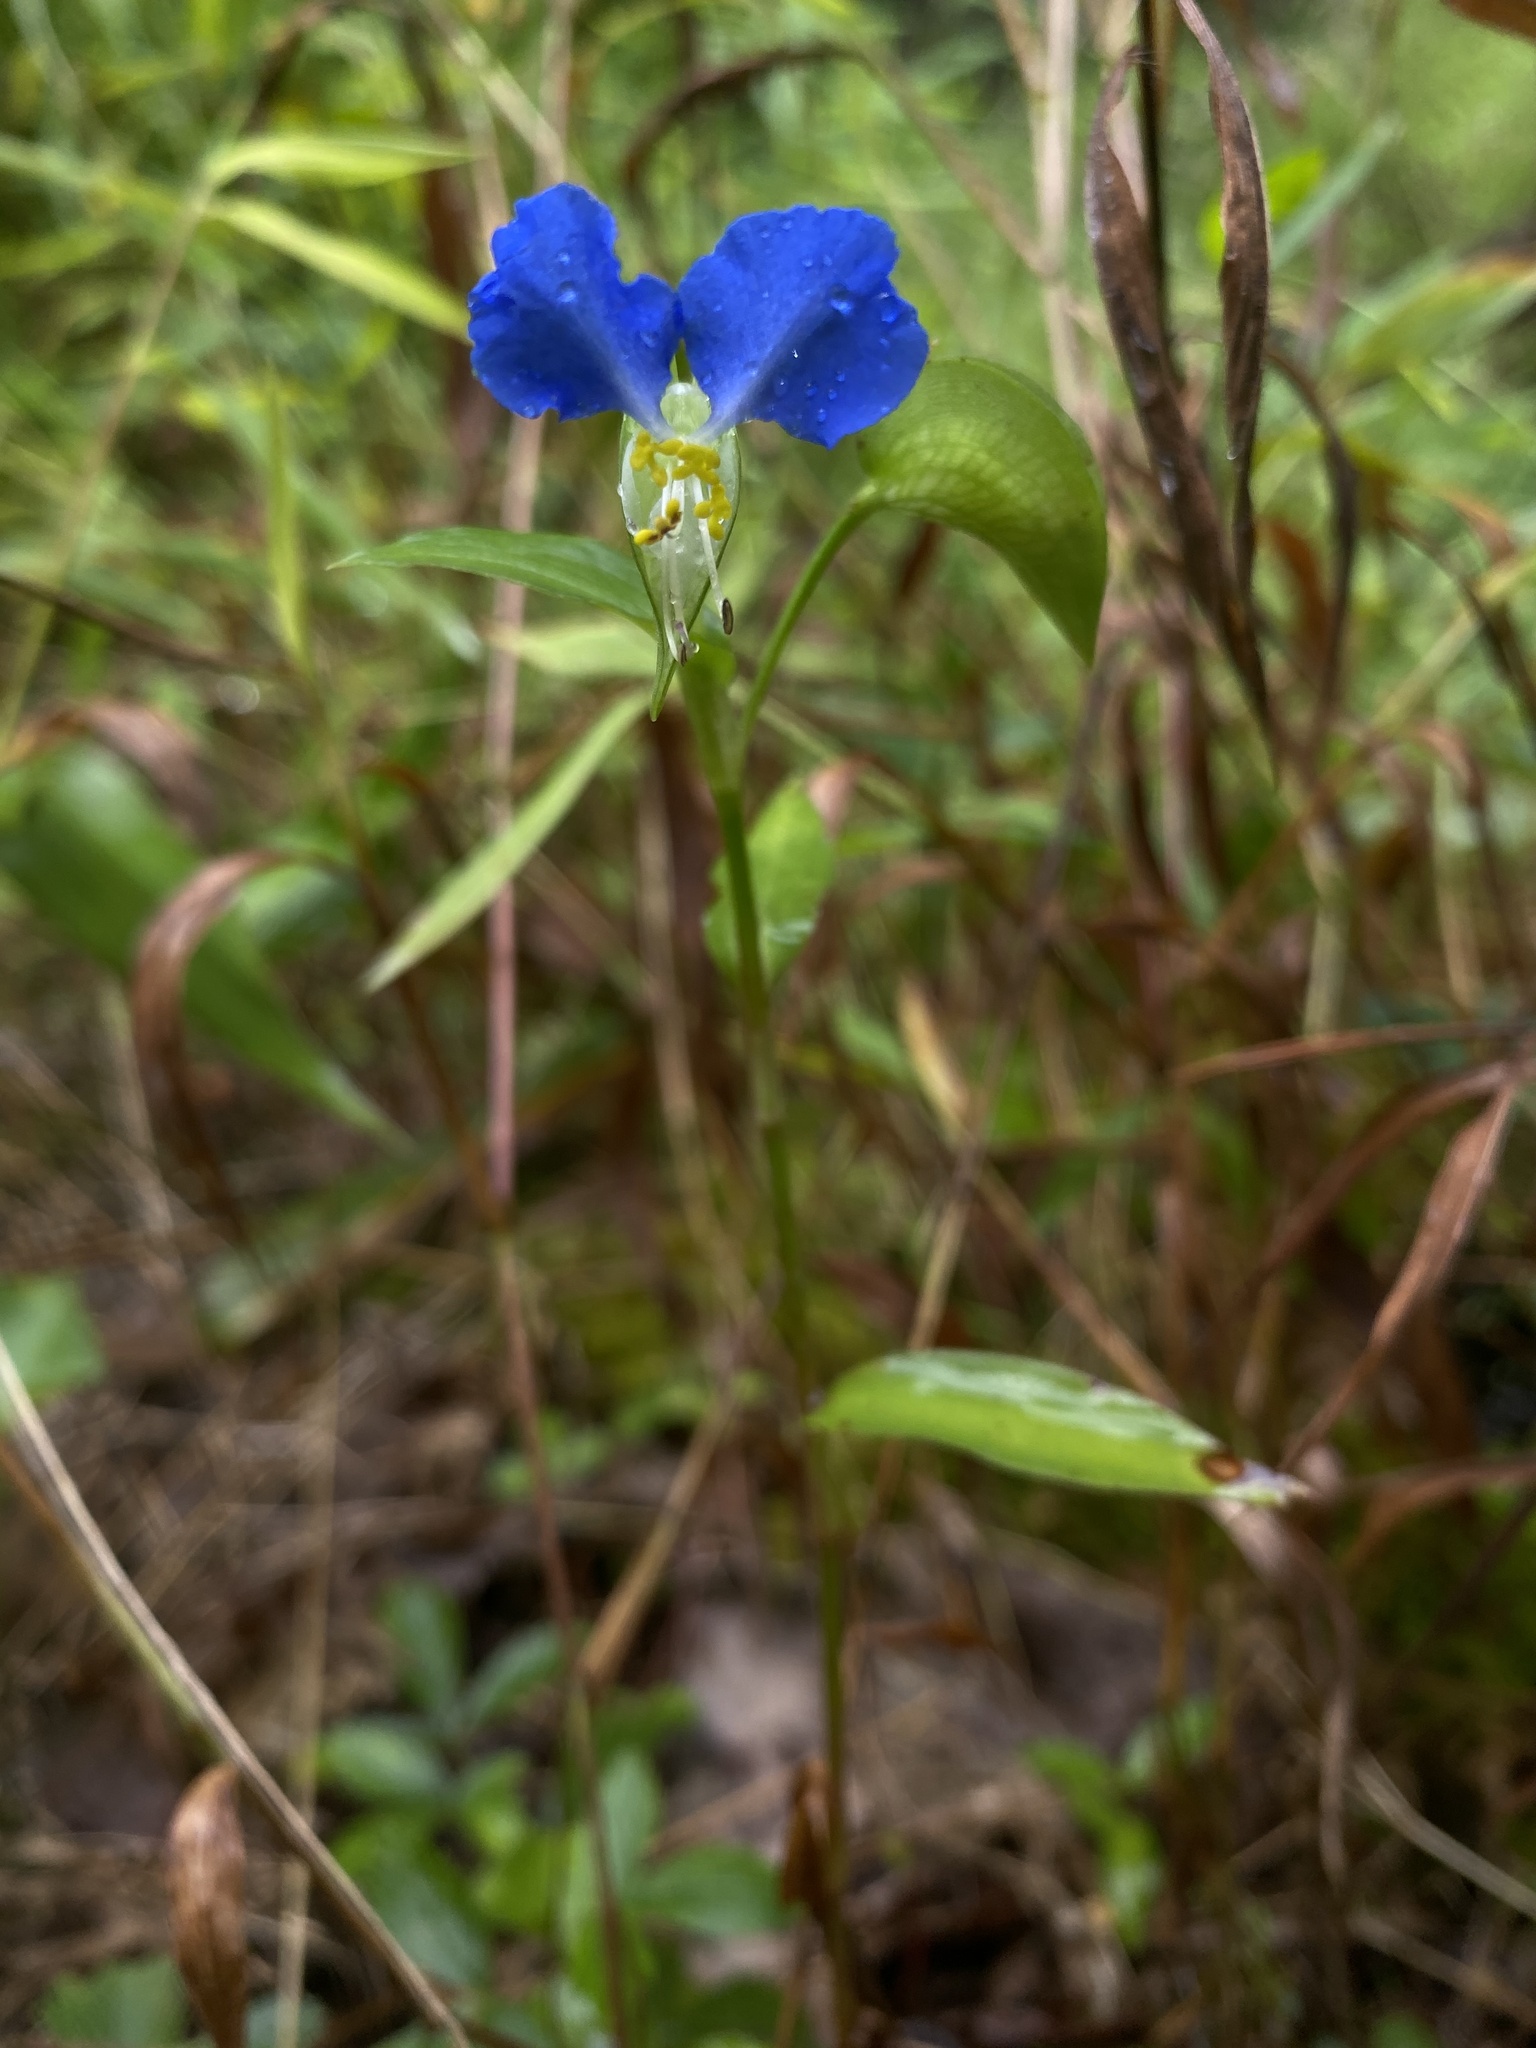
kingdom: Plantae
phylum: Tracheophyta
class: Liliopsida
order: Commelinales
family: Commelinaceae
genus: Commelina
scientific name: Commelina communis
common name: Asiatic dayflower
